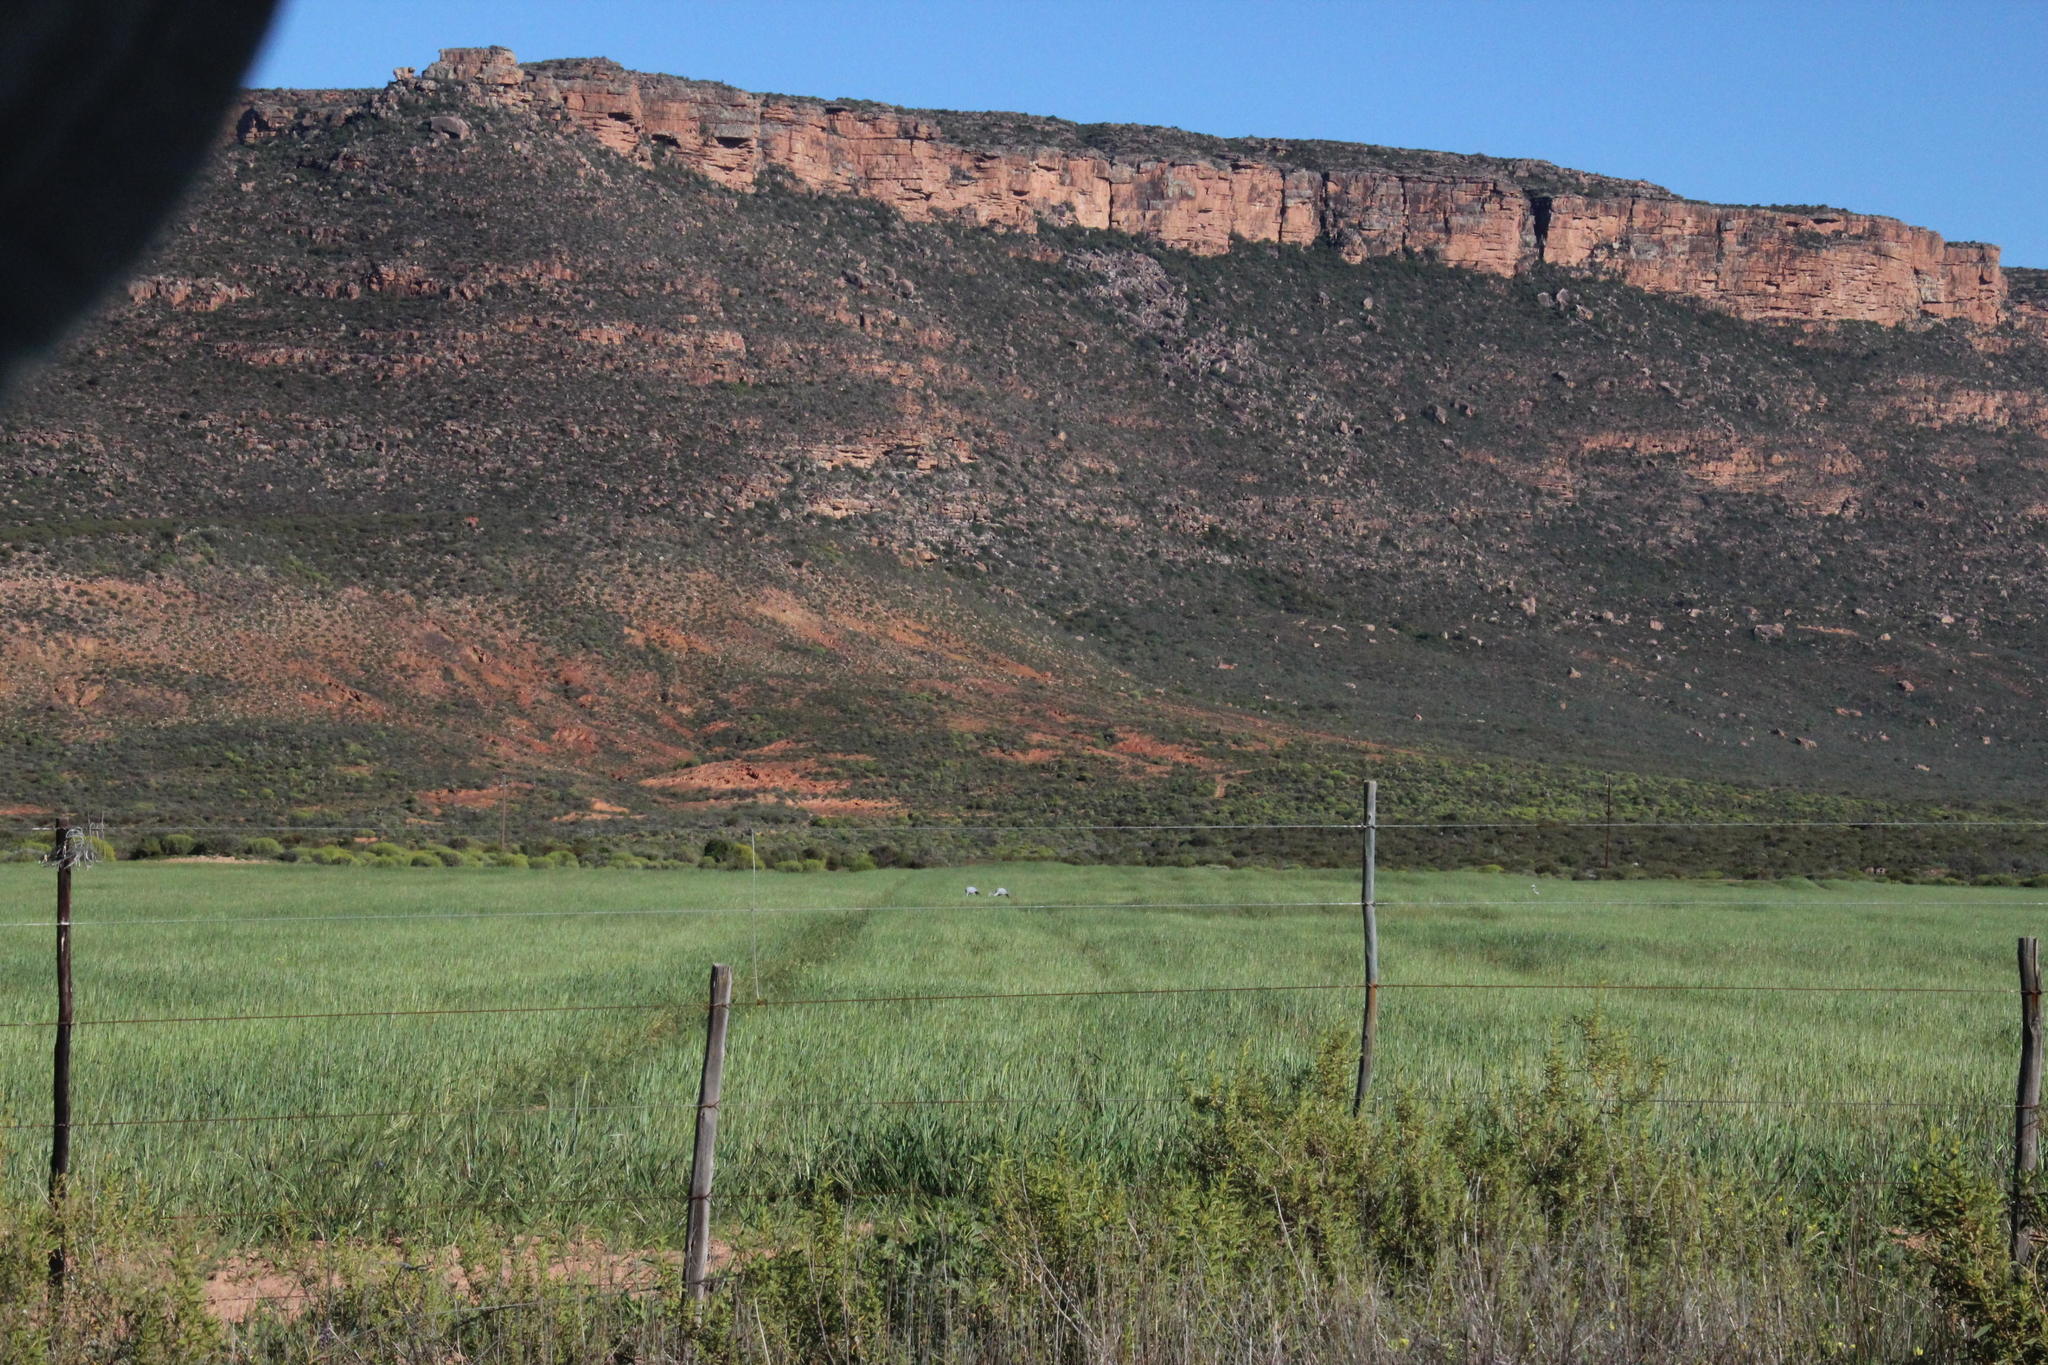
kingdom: Animalia
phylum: Chordata
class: Aves
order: Gruiformes
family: Gruidae
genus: Anthropoides
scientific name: Anthropoides paradiseus
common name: Blue crane
